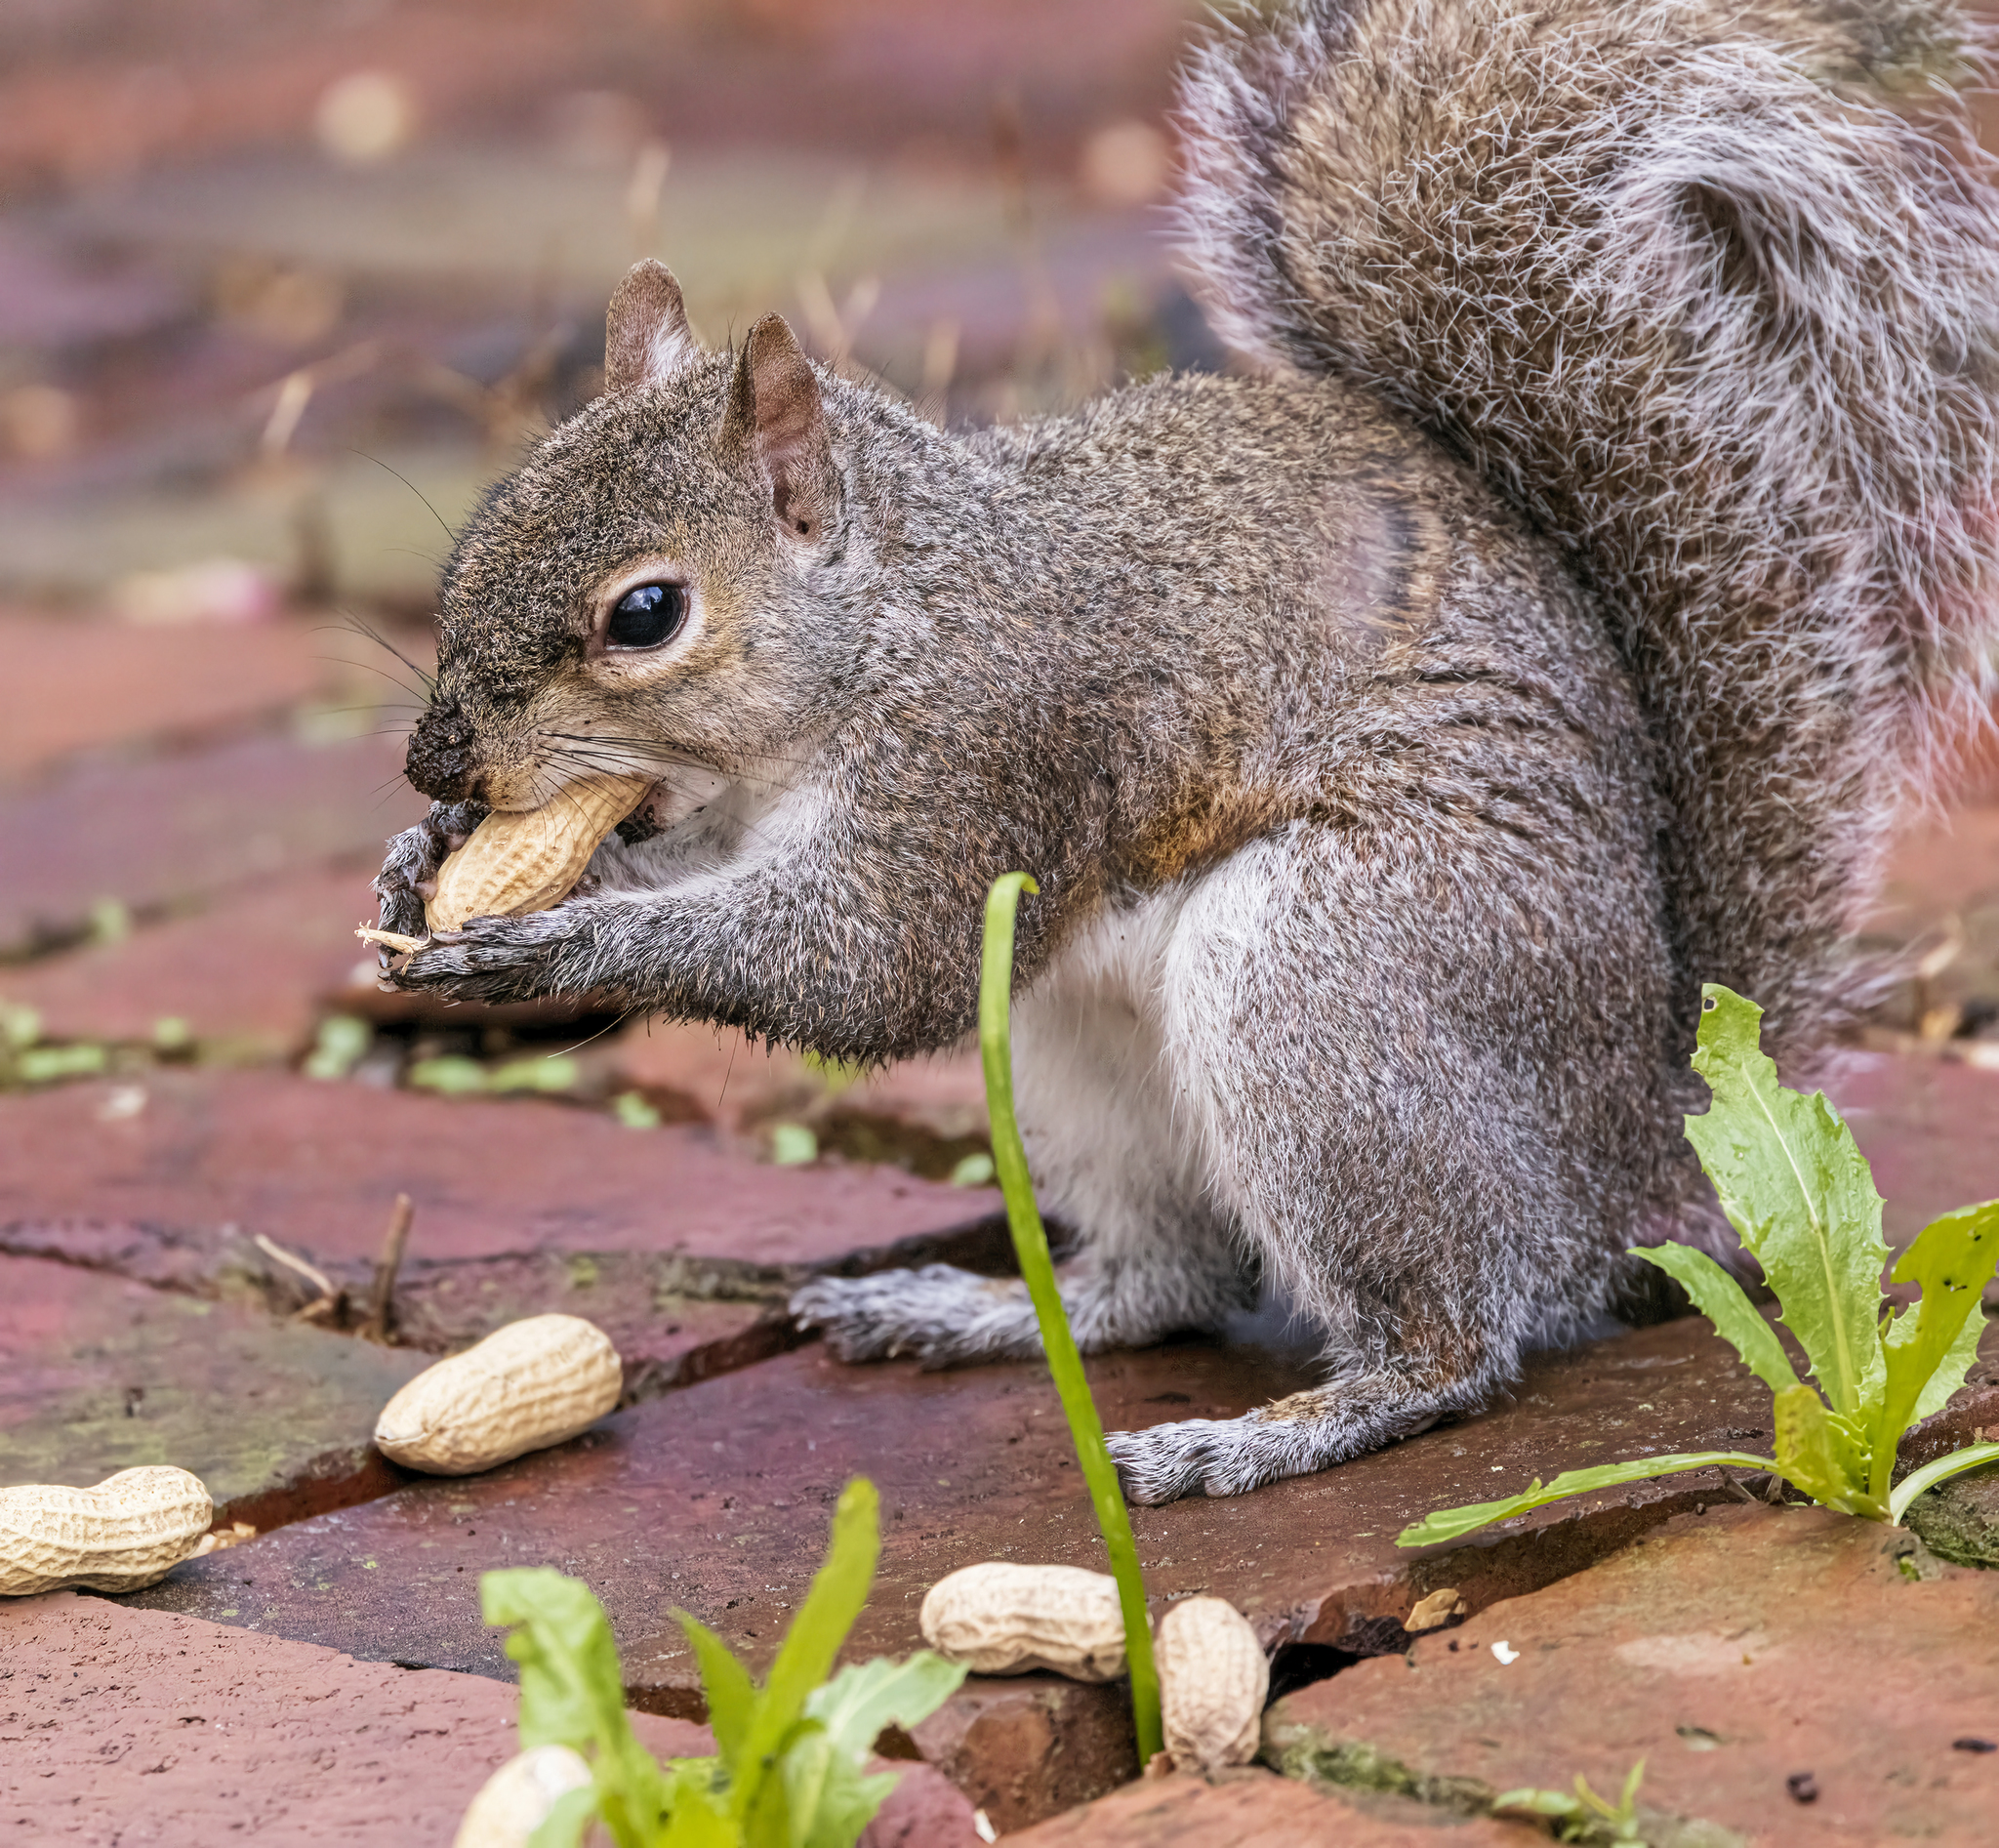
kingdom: Animalia
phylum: Chordata
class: Mammalia
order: Rodentia
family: Sciuridae
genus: Sciurus
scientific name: Sciurus carolinensis
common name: Eastern gray squirrel
